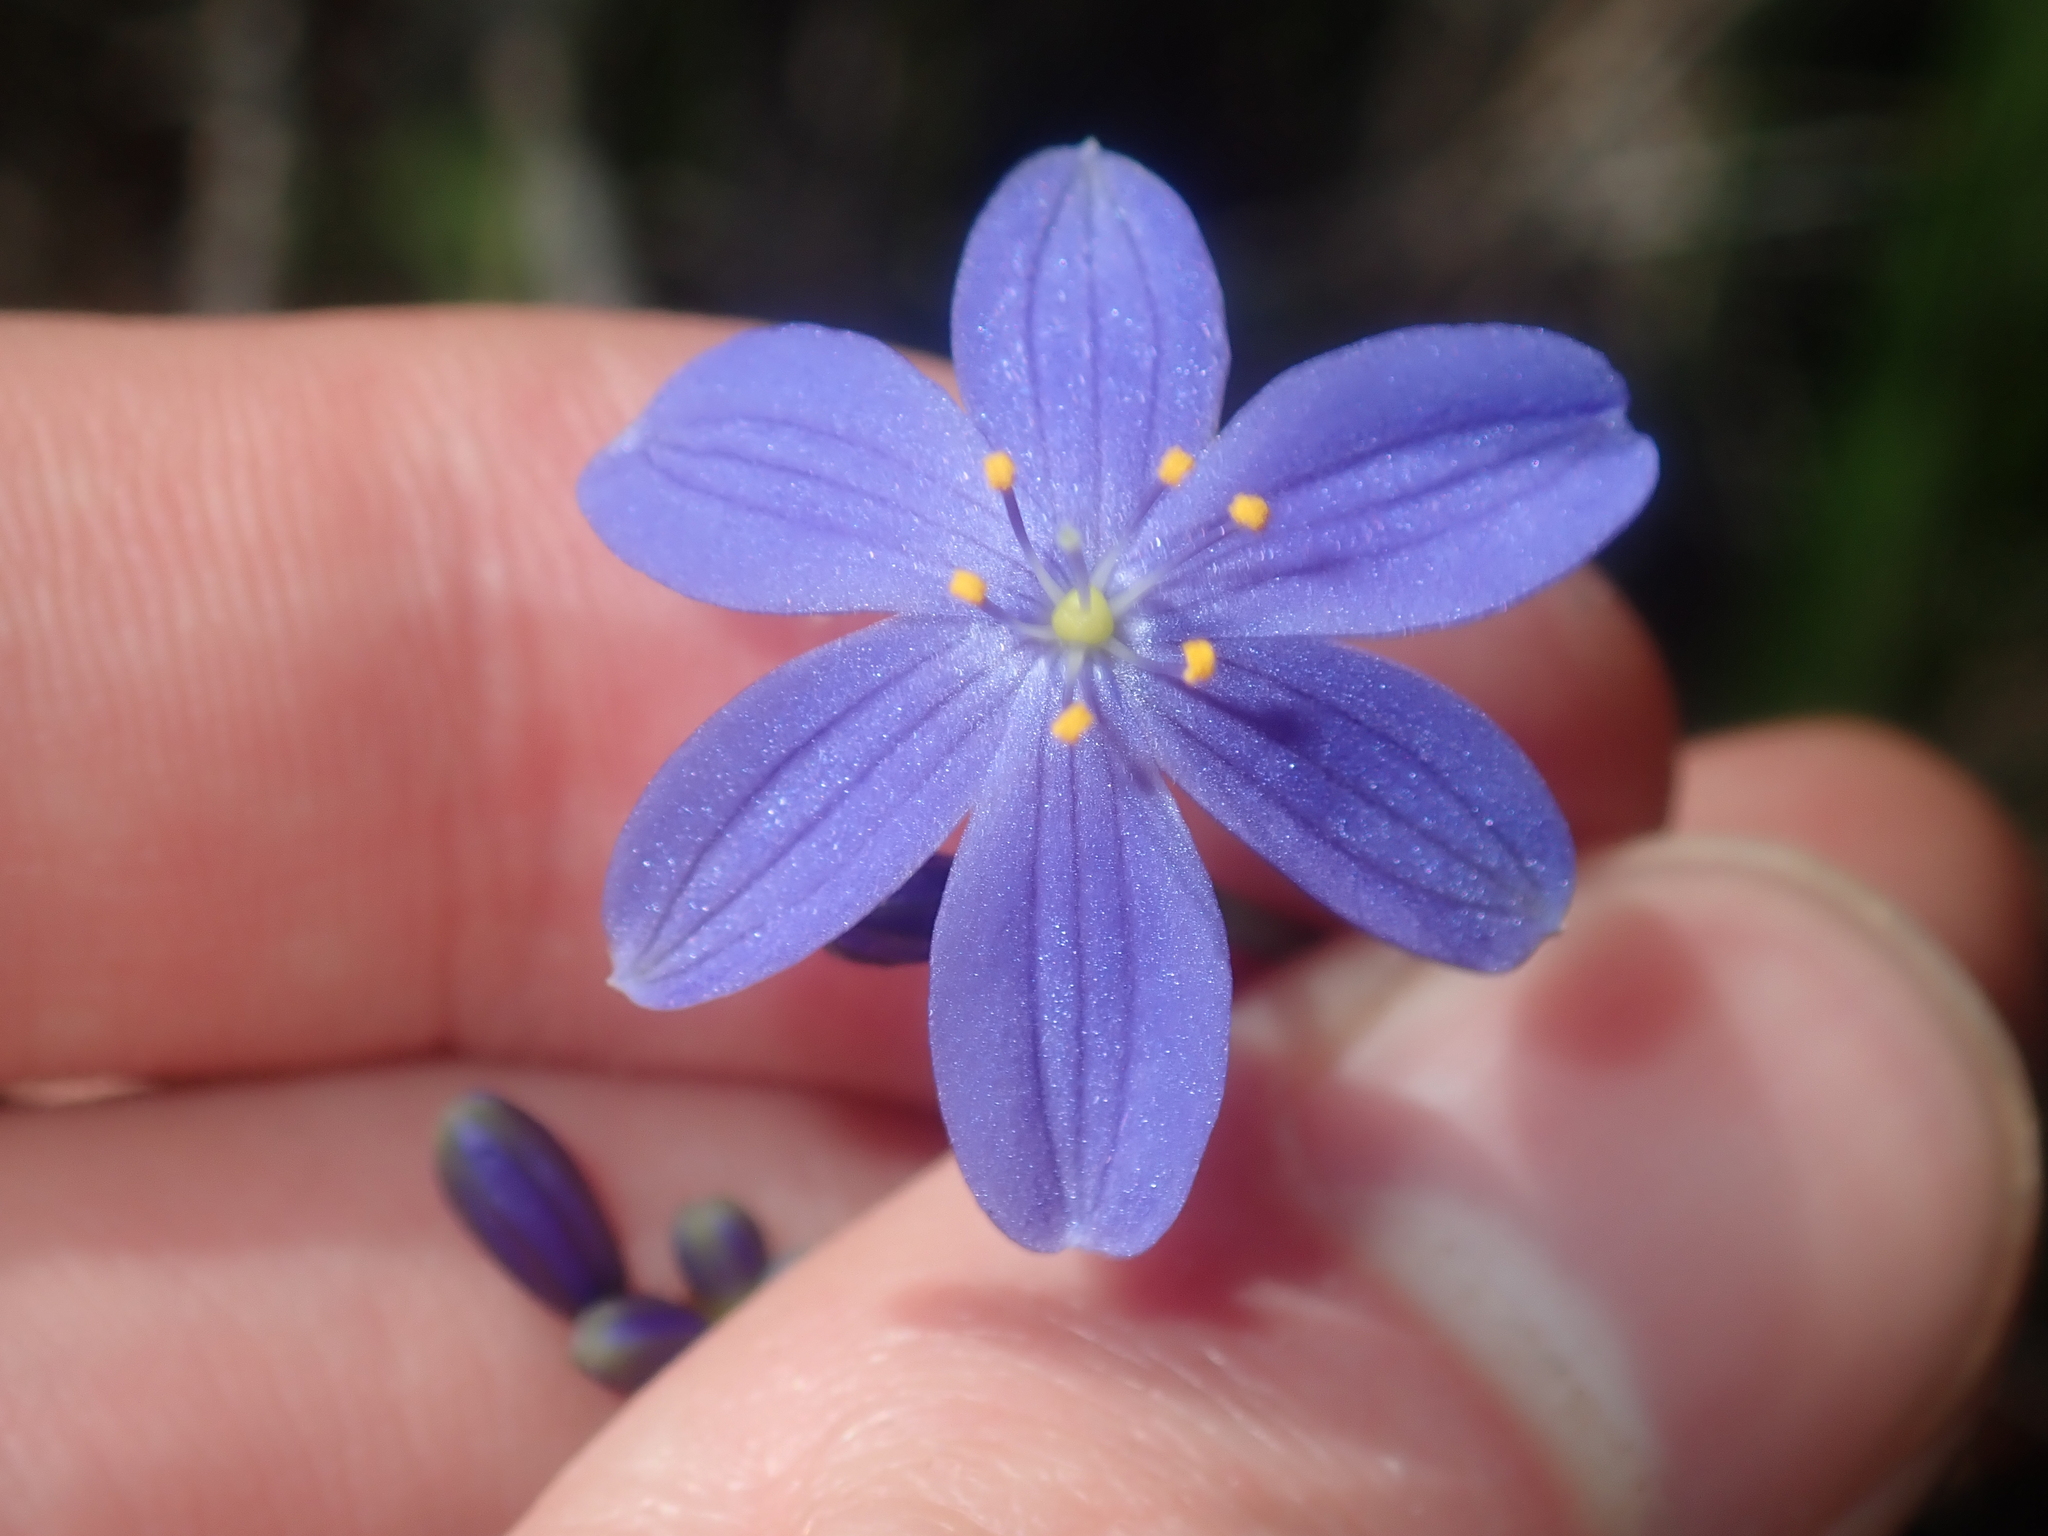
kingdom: Plantae
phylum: Tracheophyta
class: Liliopsida
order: Asparagales
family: Asphodelaceae
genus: Chamaescilla
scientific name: Chamaescilla corymbosa
